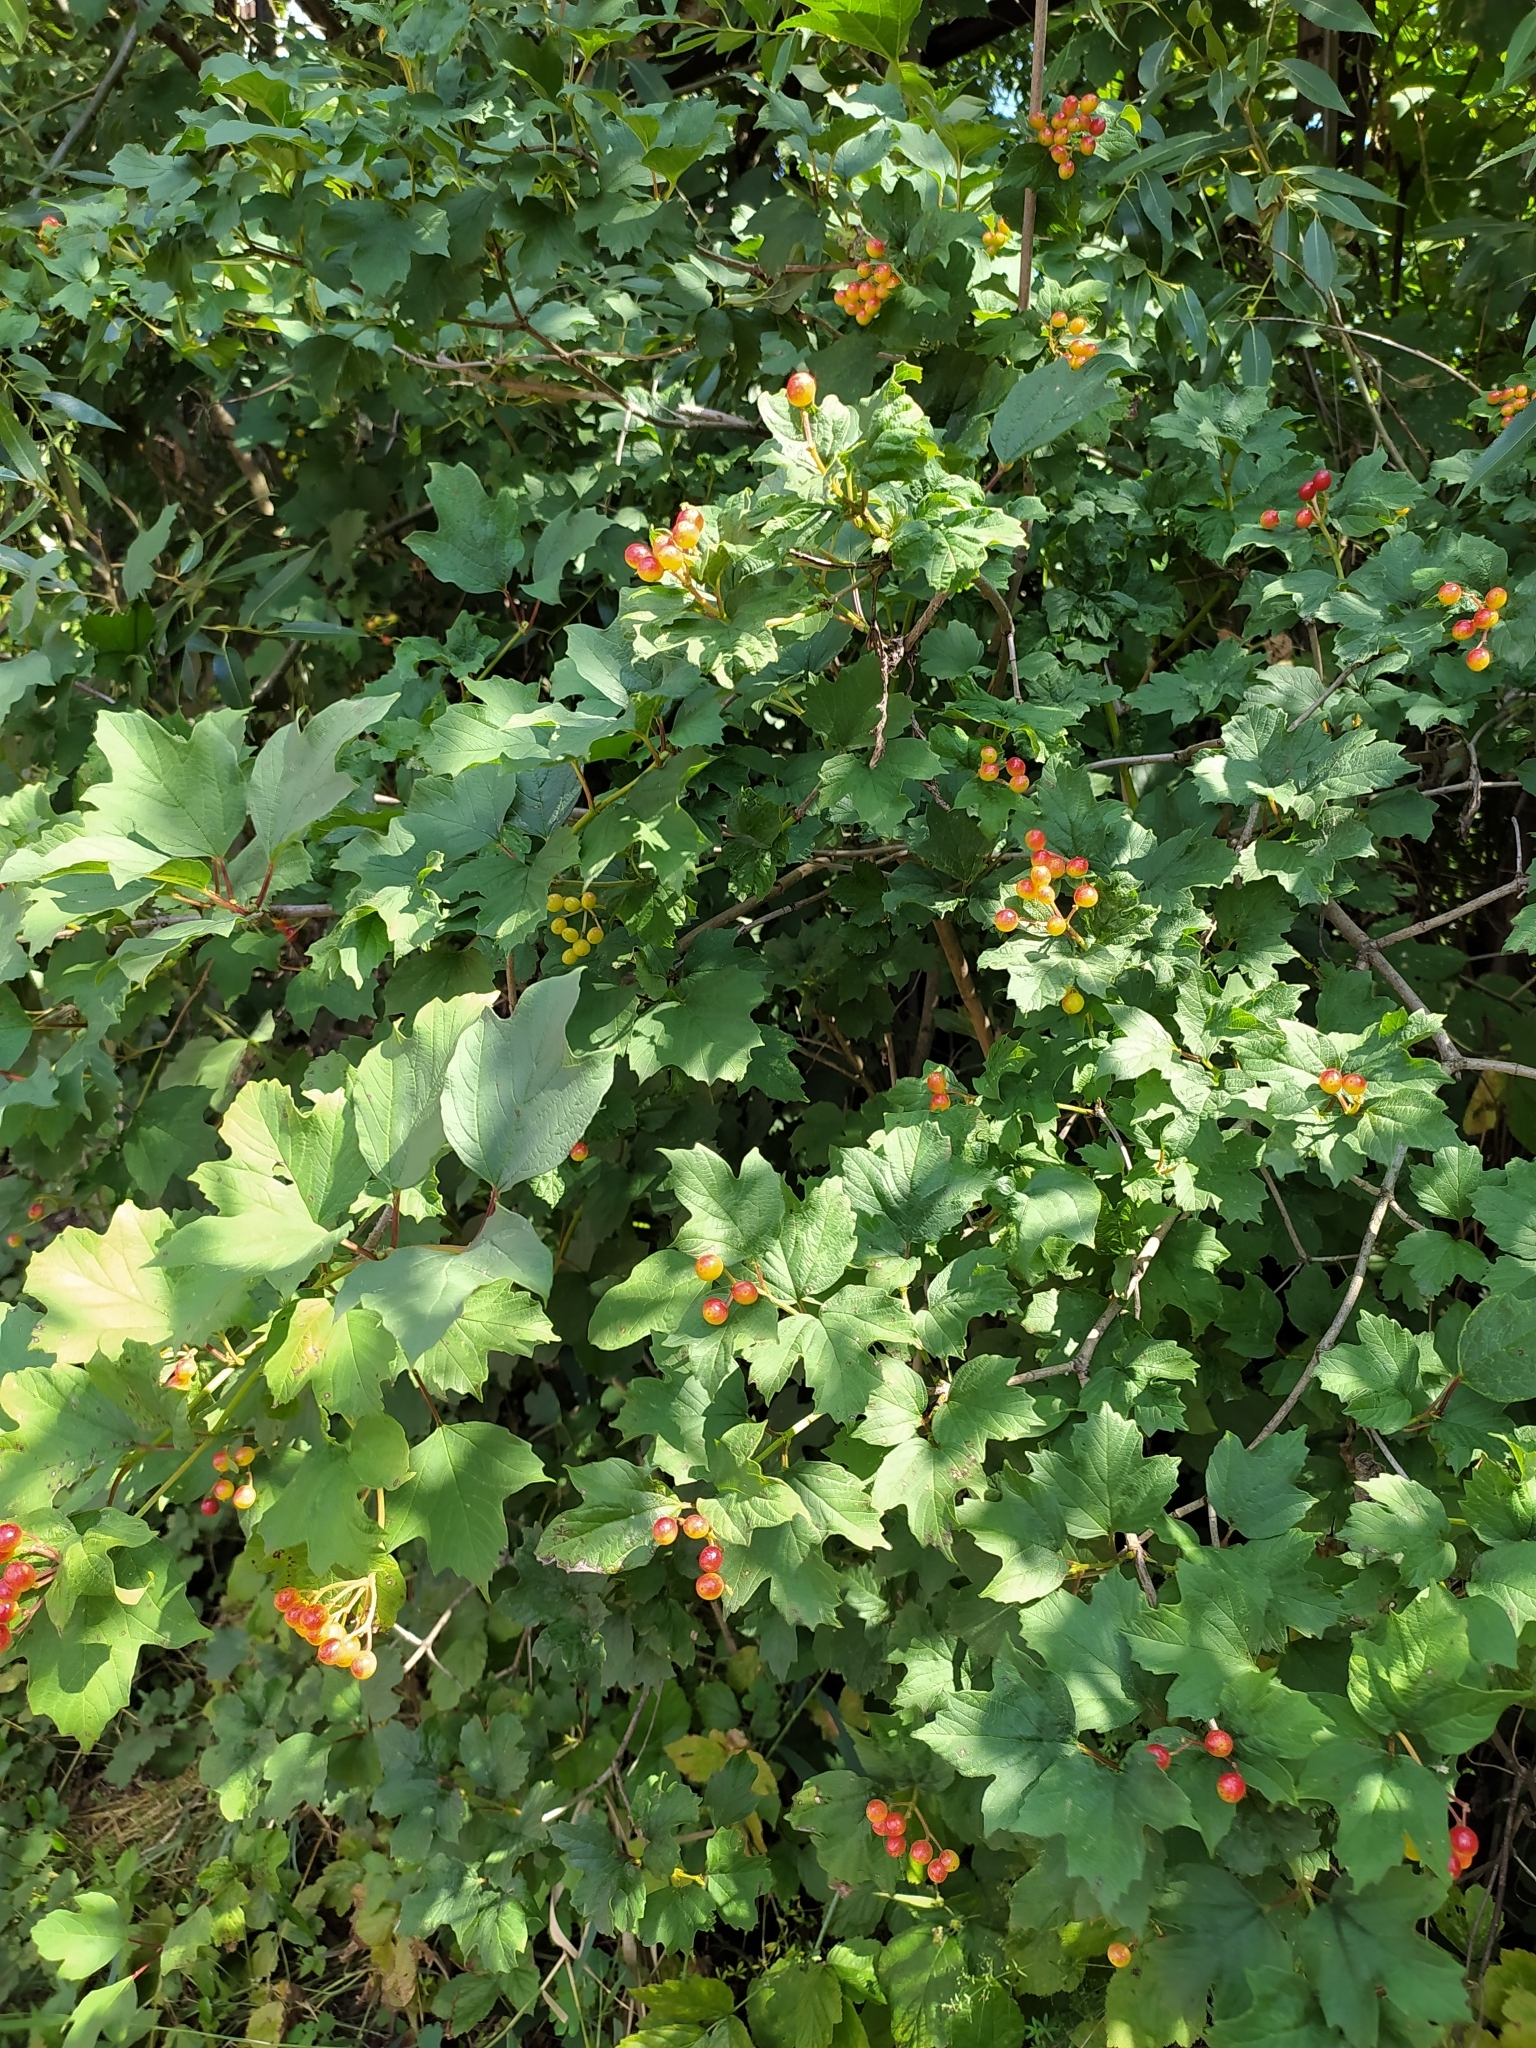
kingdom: Plantae
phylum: Tracheophyta
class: Magnoliopsida
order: Dipsacales
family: Viburnaceae
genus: Viburnum
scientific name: Viburnum opulus
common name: Guelder-rose
